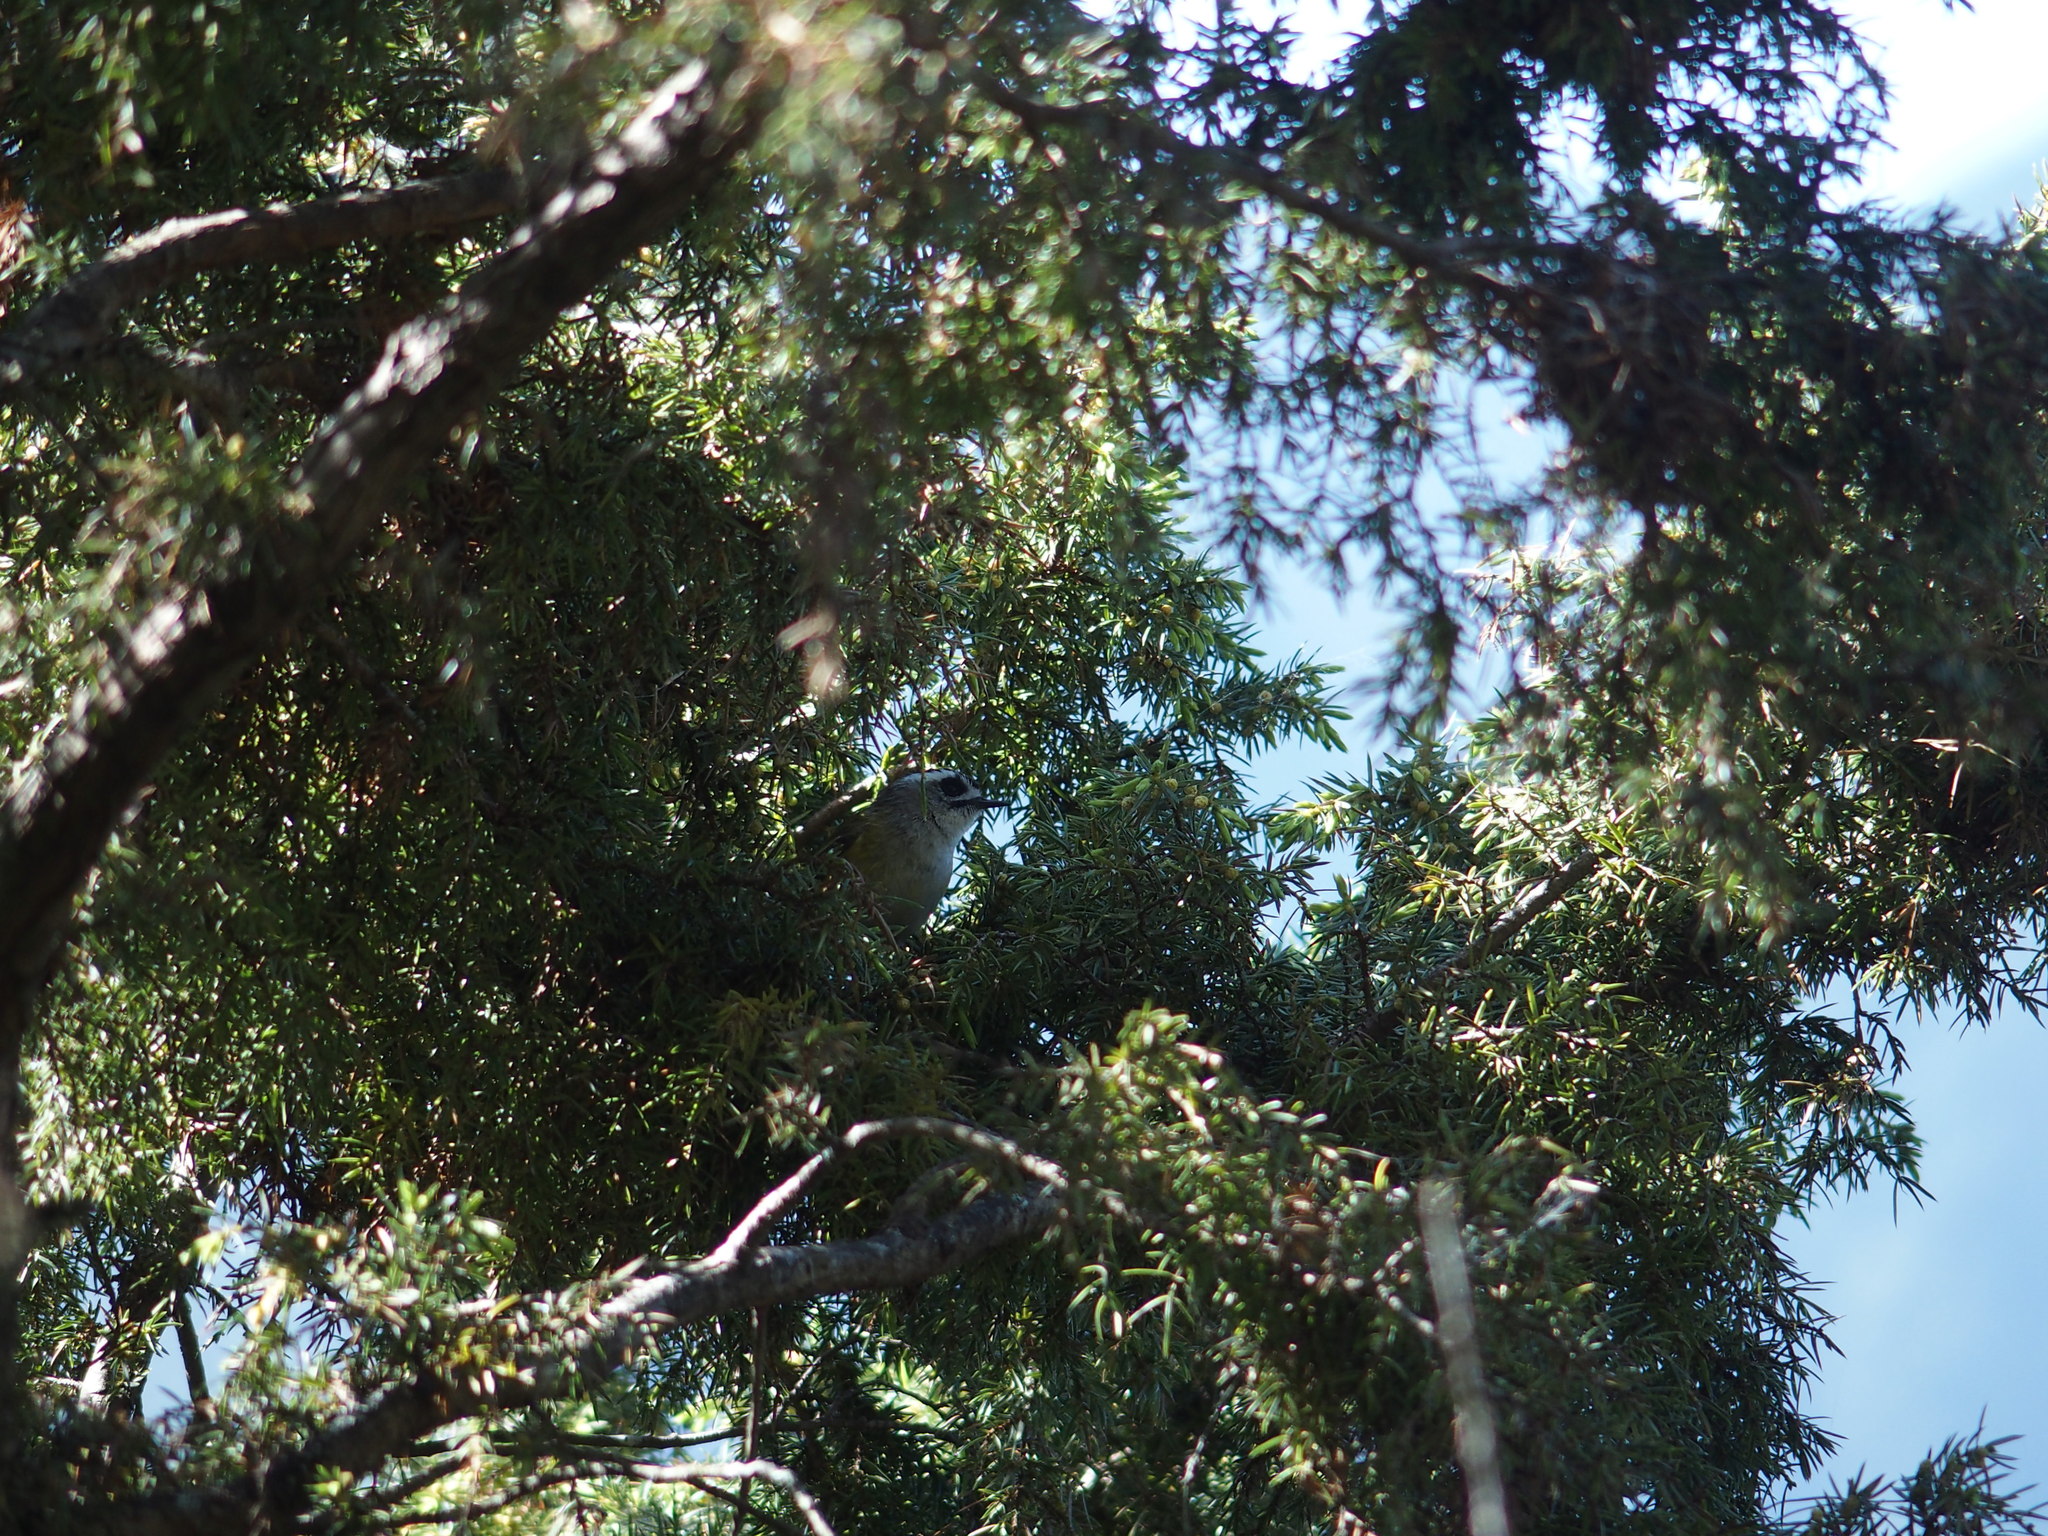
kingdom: Animalia
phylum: Chordata
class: Aves
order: Passeriformes
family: Regulidae
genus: Regulus
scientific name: Regulus goodfellowi
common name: Flamecrest
